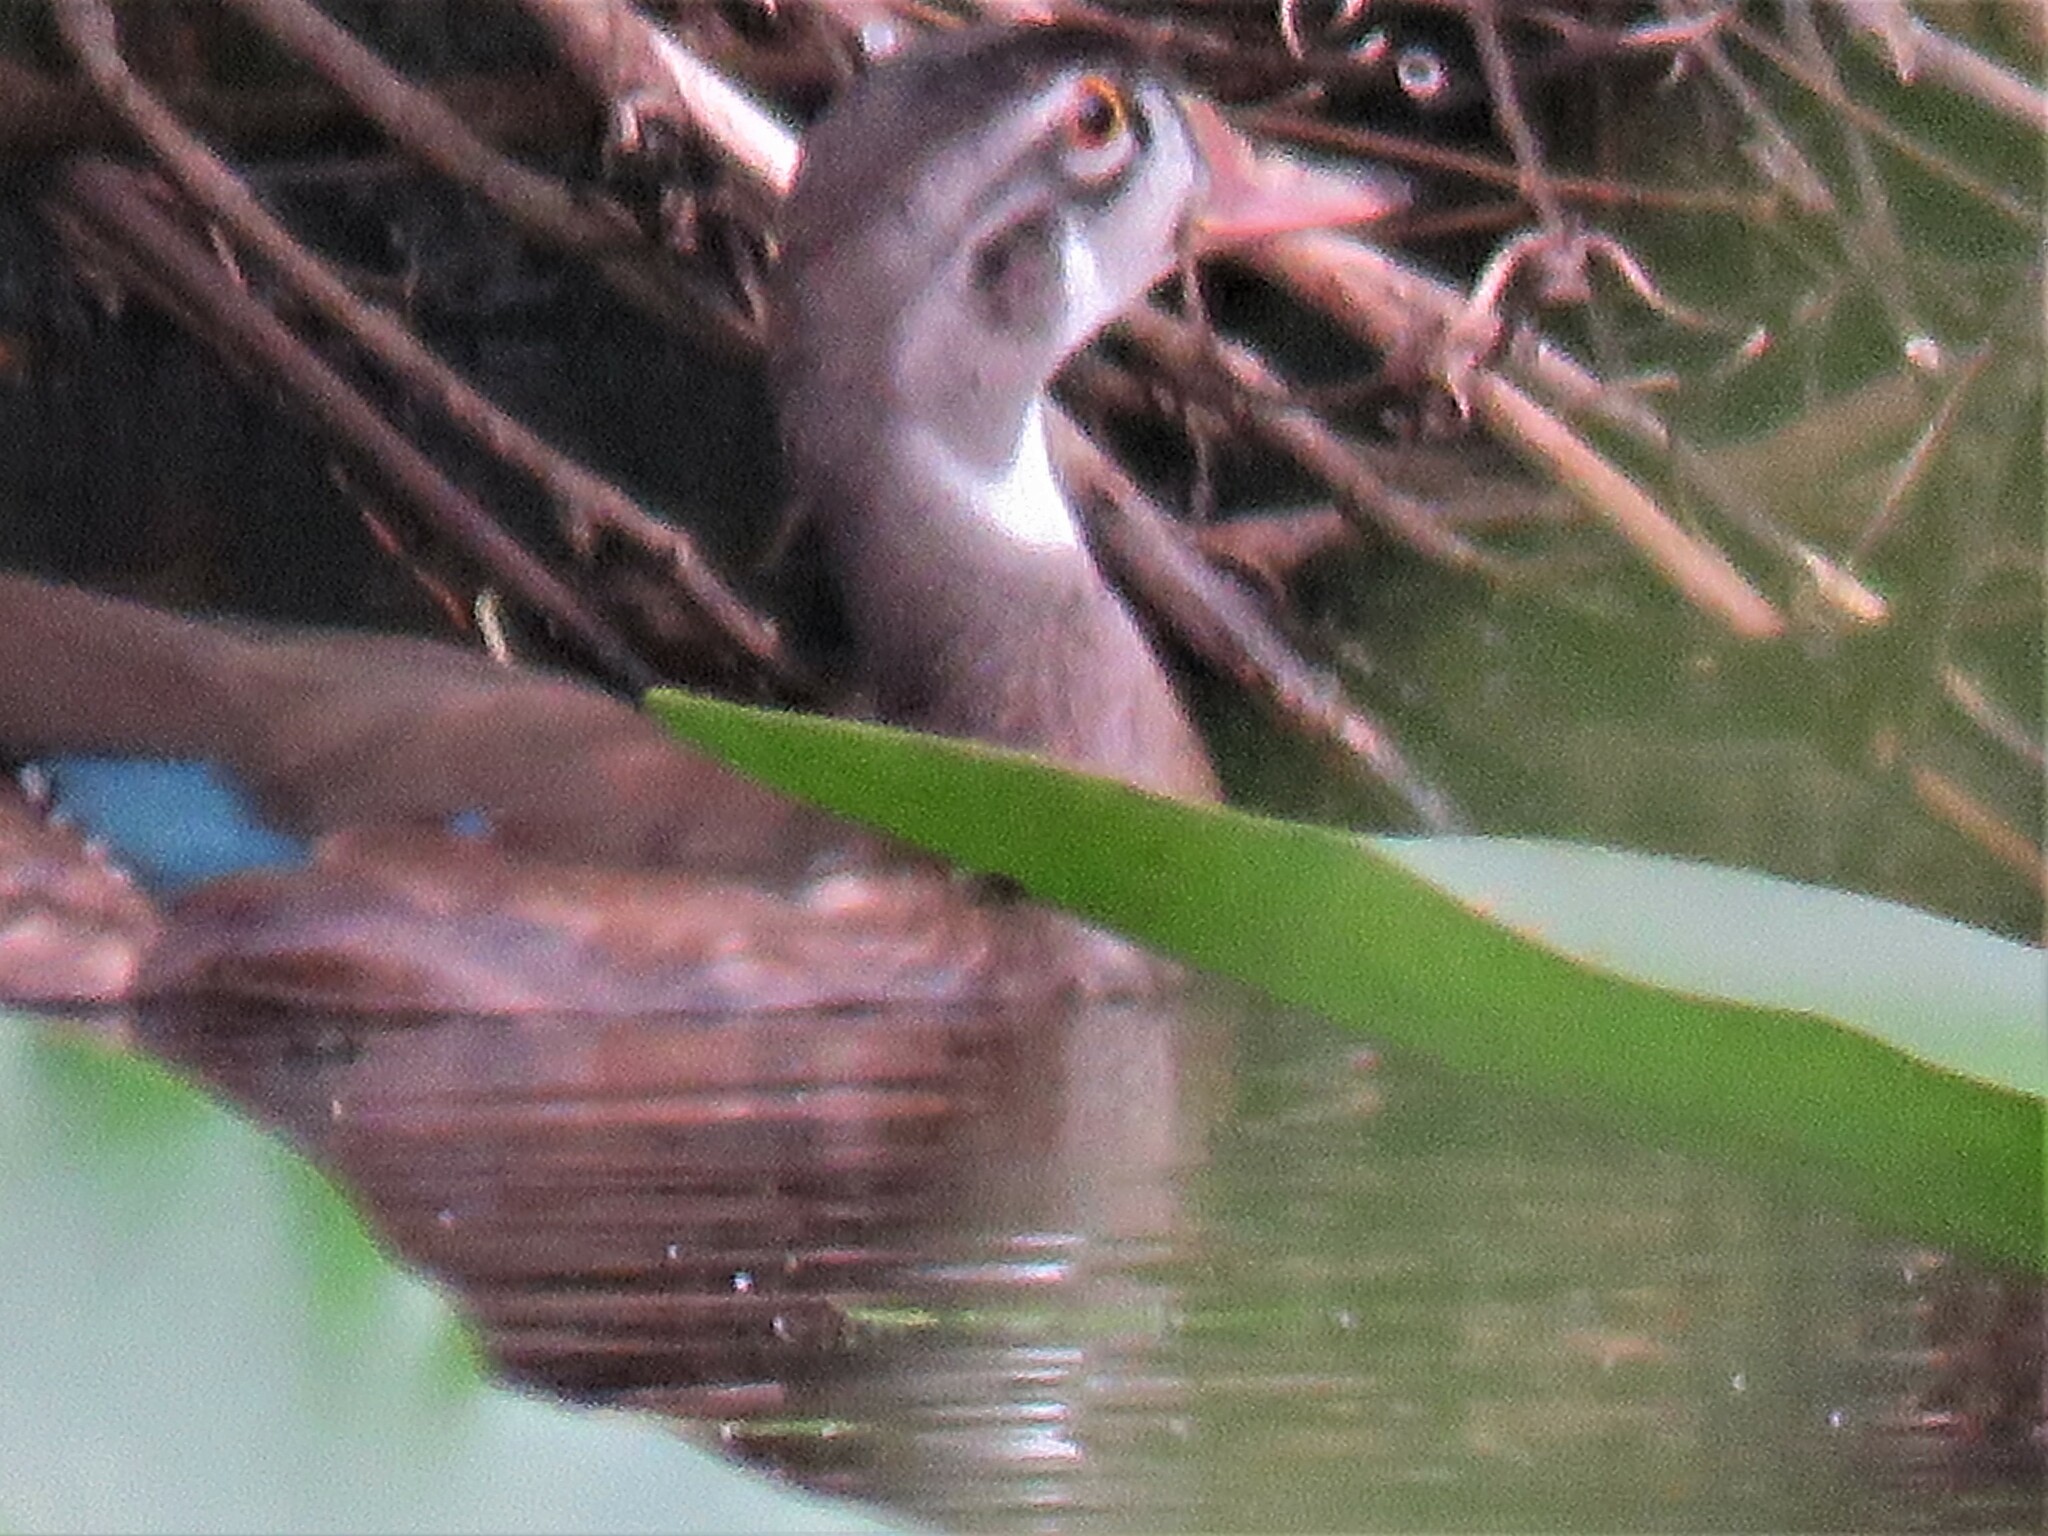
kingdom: Animalia
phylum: Chordata
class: Aves
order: Anseriformes
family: Anatidae
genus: Aix
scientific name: Aix sponsa
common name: Wood duck
